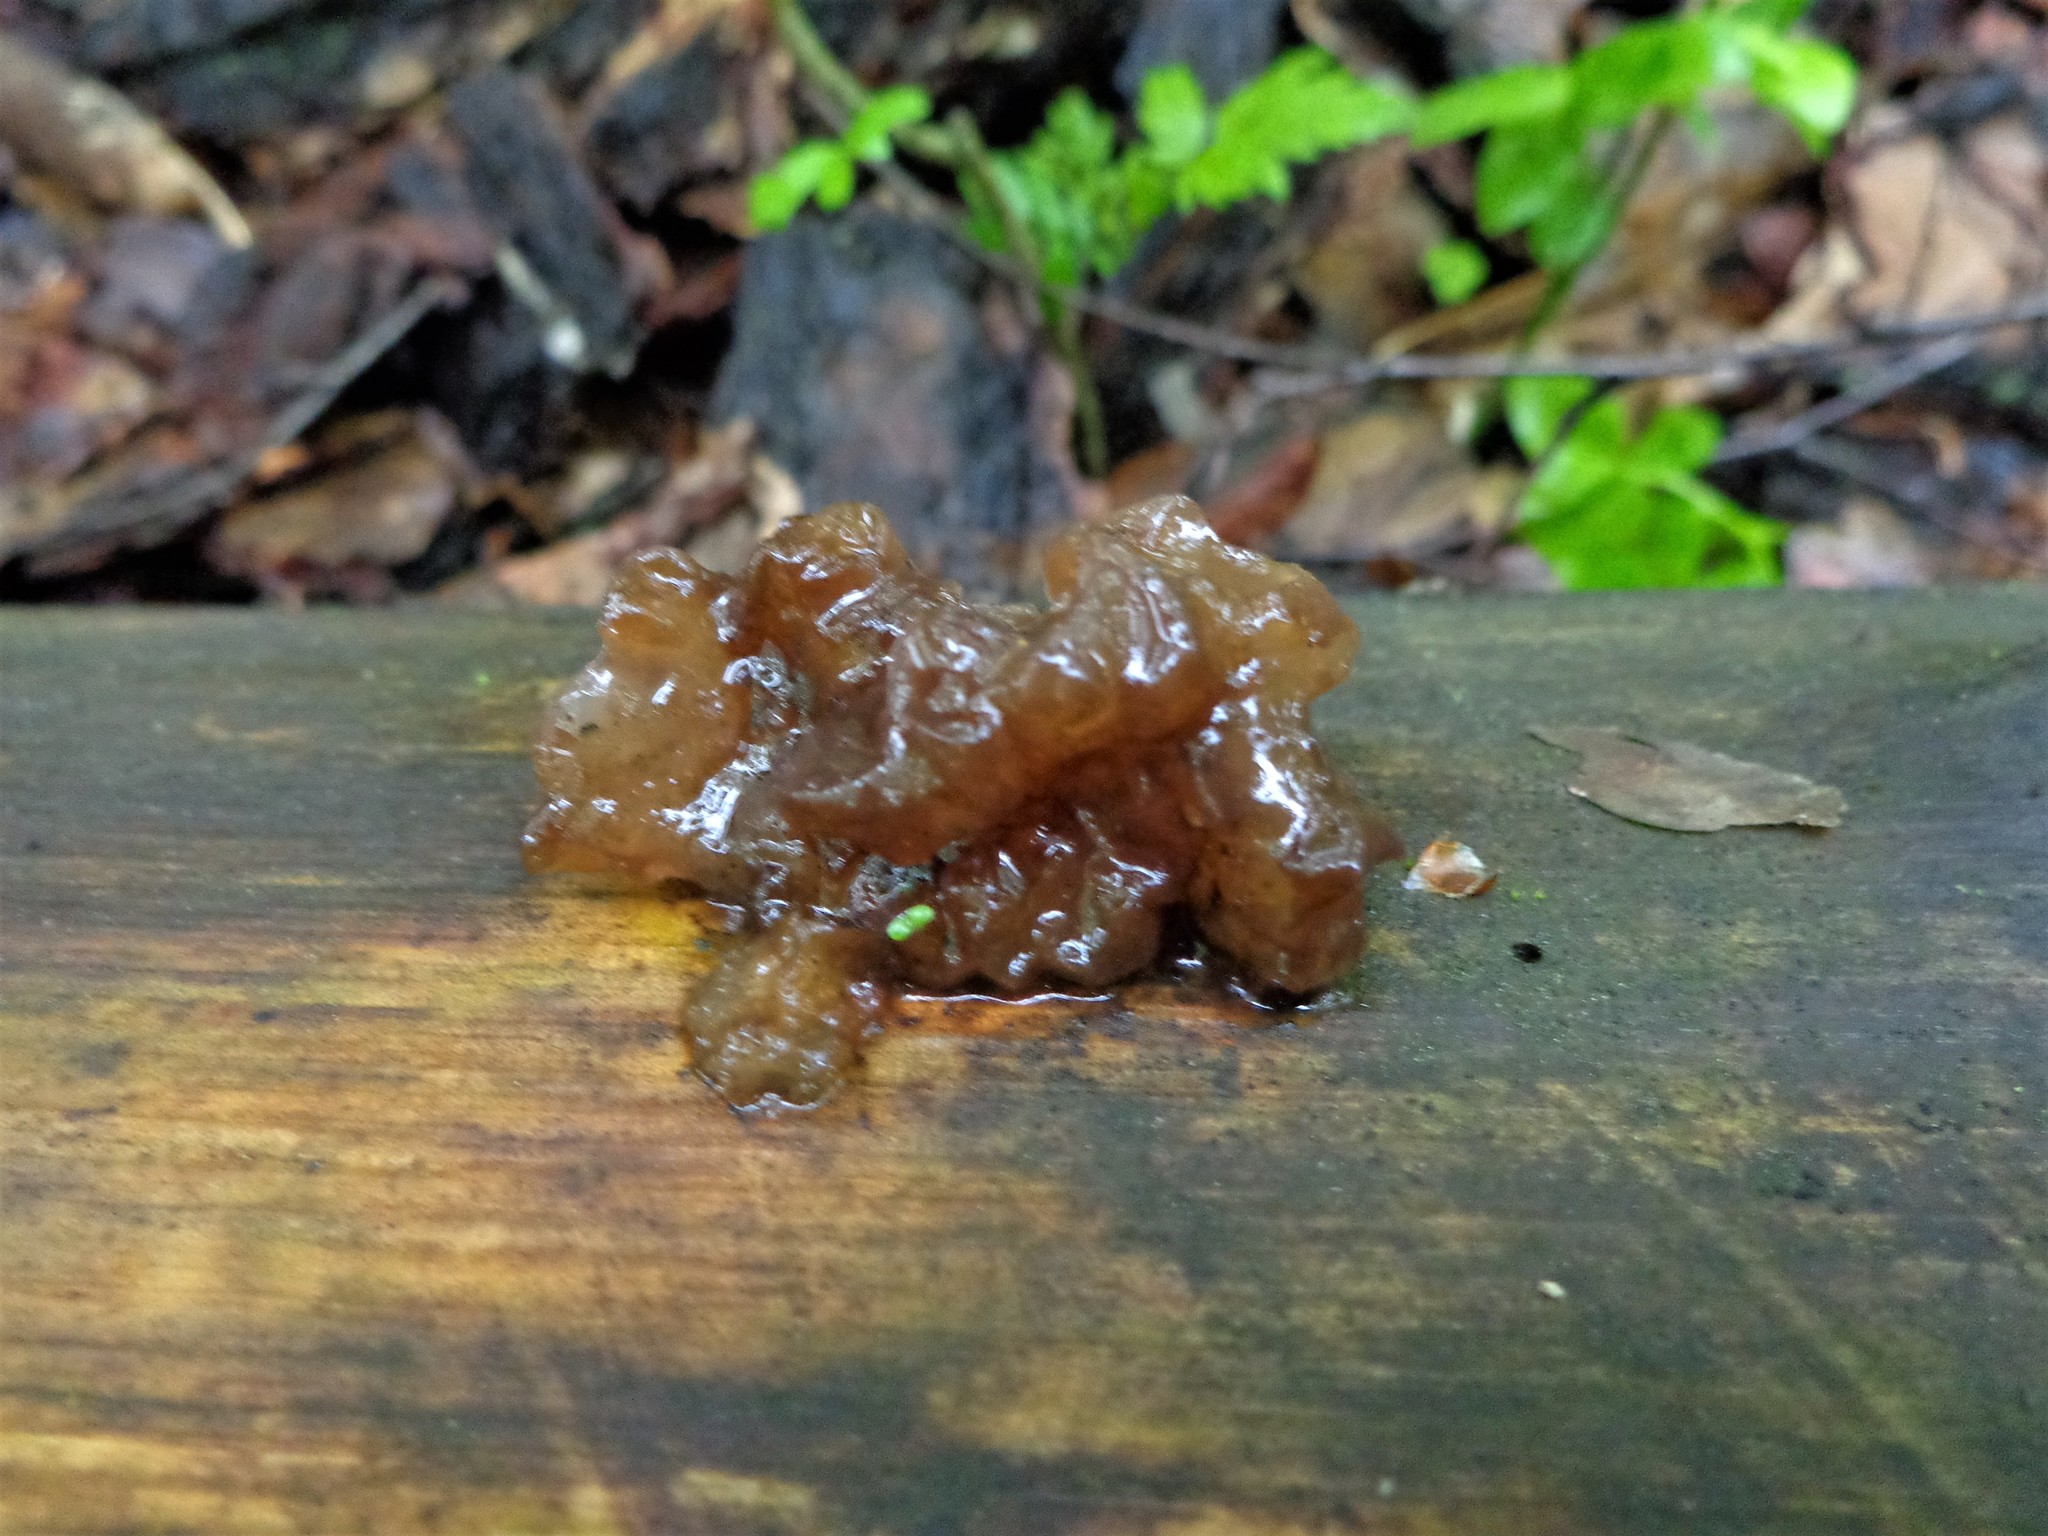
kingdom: Fungi
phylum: Basidiomycota
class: Agaricomycetes
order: Auriculariales
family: Auriculariaceae
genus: Exidia
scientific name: Exidia saccharina
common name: Pine jelly
